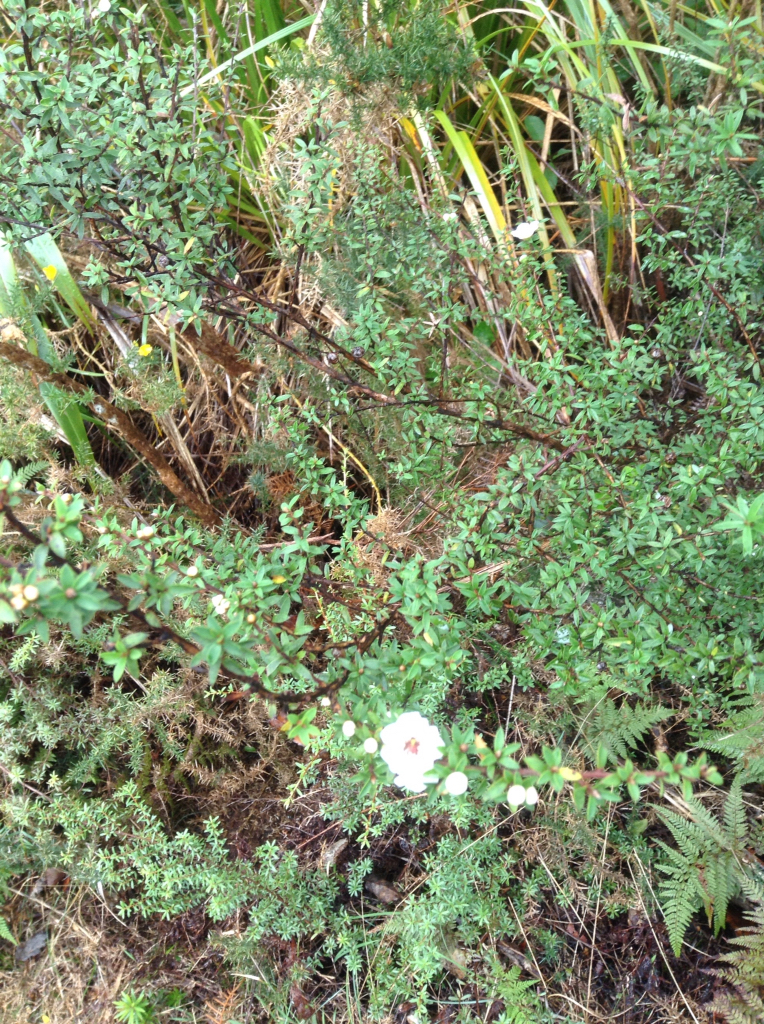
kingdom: Plantae
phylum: Tracheophyta
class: Magnoliopsida
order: Myrtales
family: Myrtaceae
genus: Leptospermum
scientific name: Leptospermum scoparium
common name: Broom tea-tree
